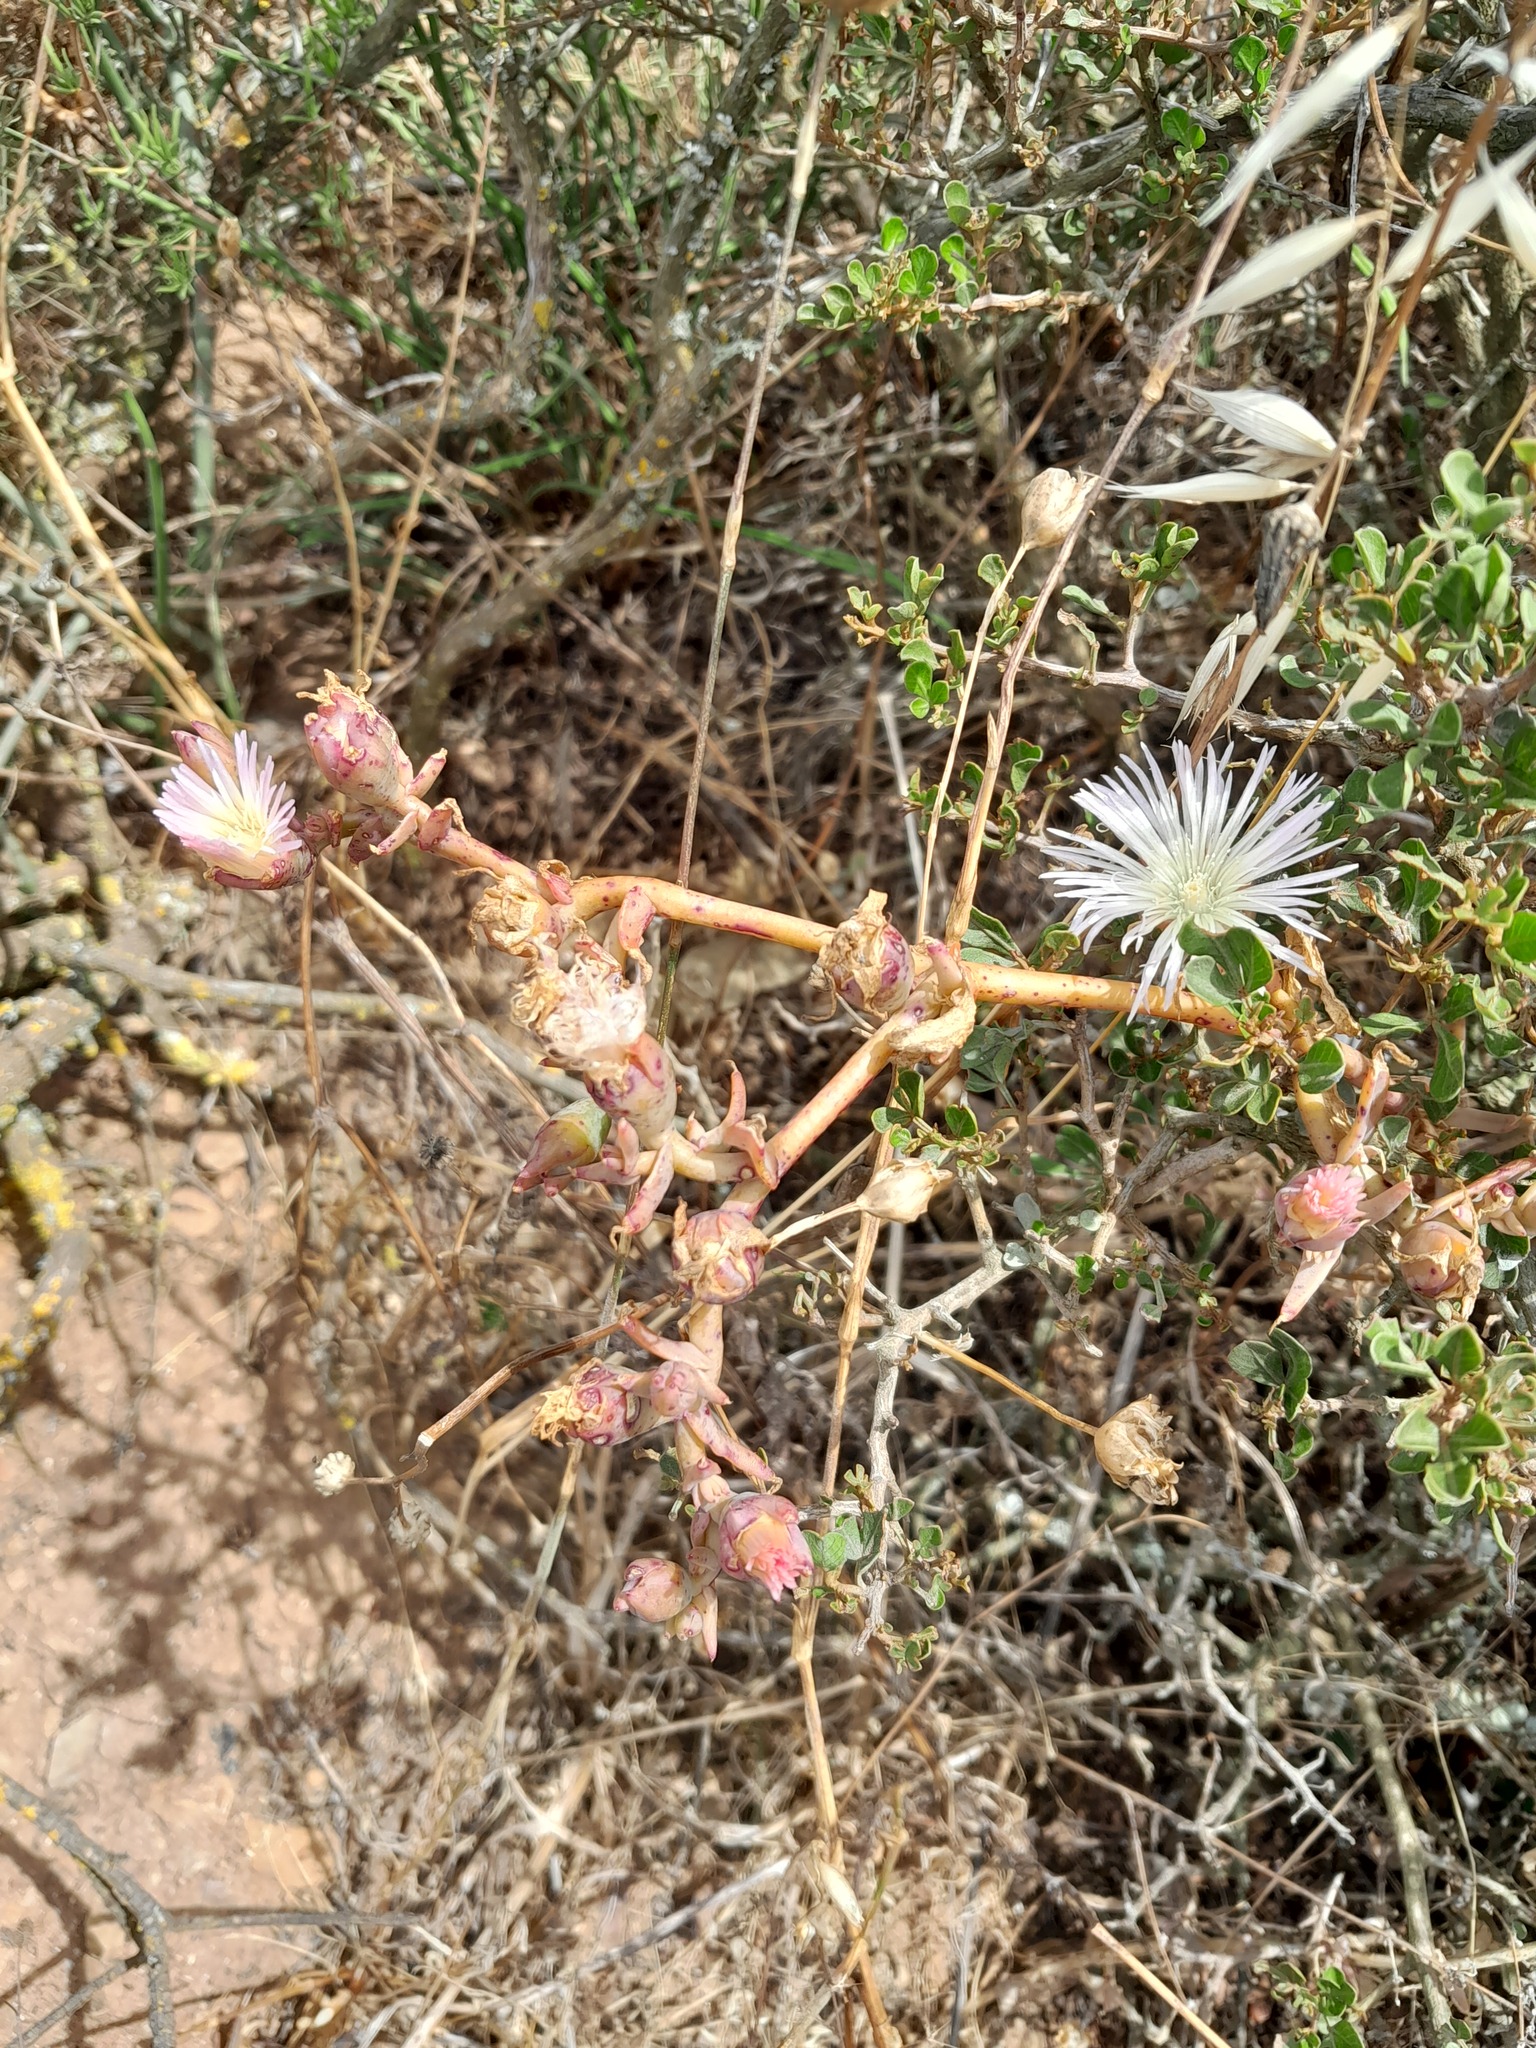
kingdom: Plantae
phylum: Tracheophyta
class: Magnoliopsida
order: Caryophyllales
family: Aizoaceae
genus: Mesembryanthemum
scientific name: Mesembryanthemum pallens
